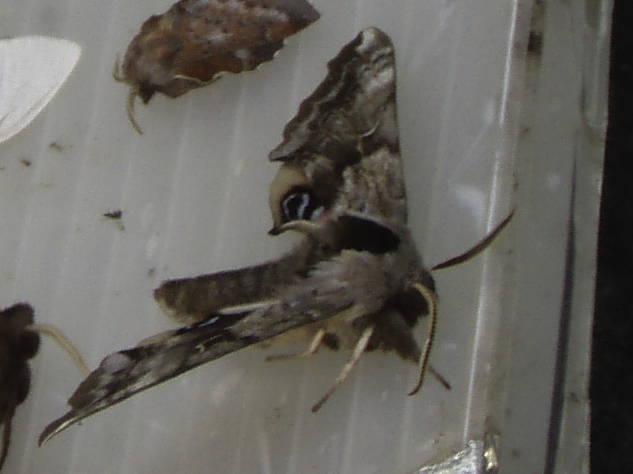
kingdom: Animalia
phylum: Arthropoda
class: Insecta
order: Lepidoptera
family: Sphingidae
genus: Smerinthus
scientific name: Smerinthus cerisyi
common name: Cerisy's sphinx moth
